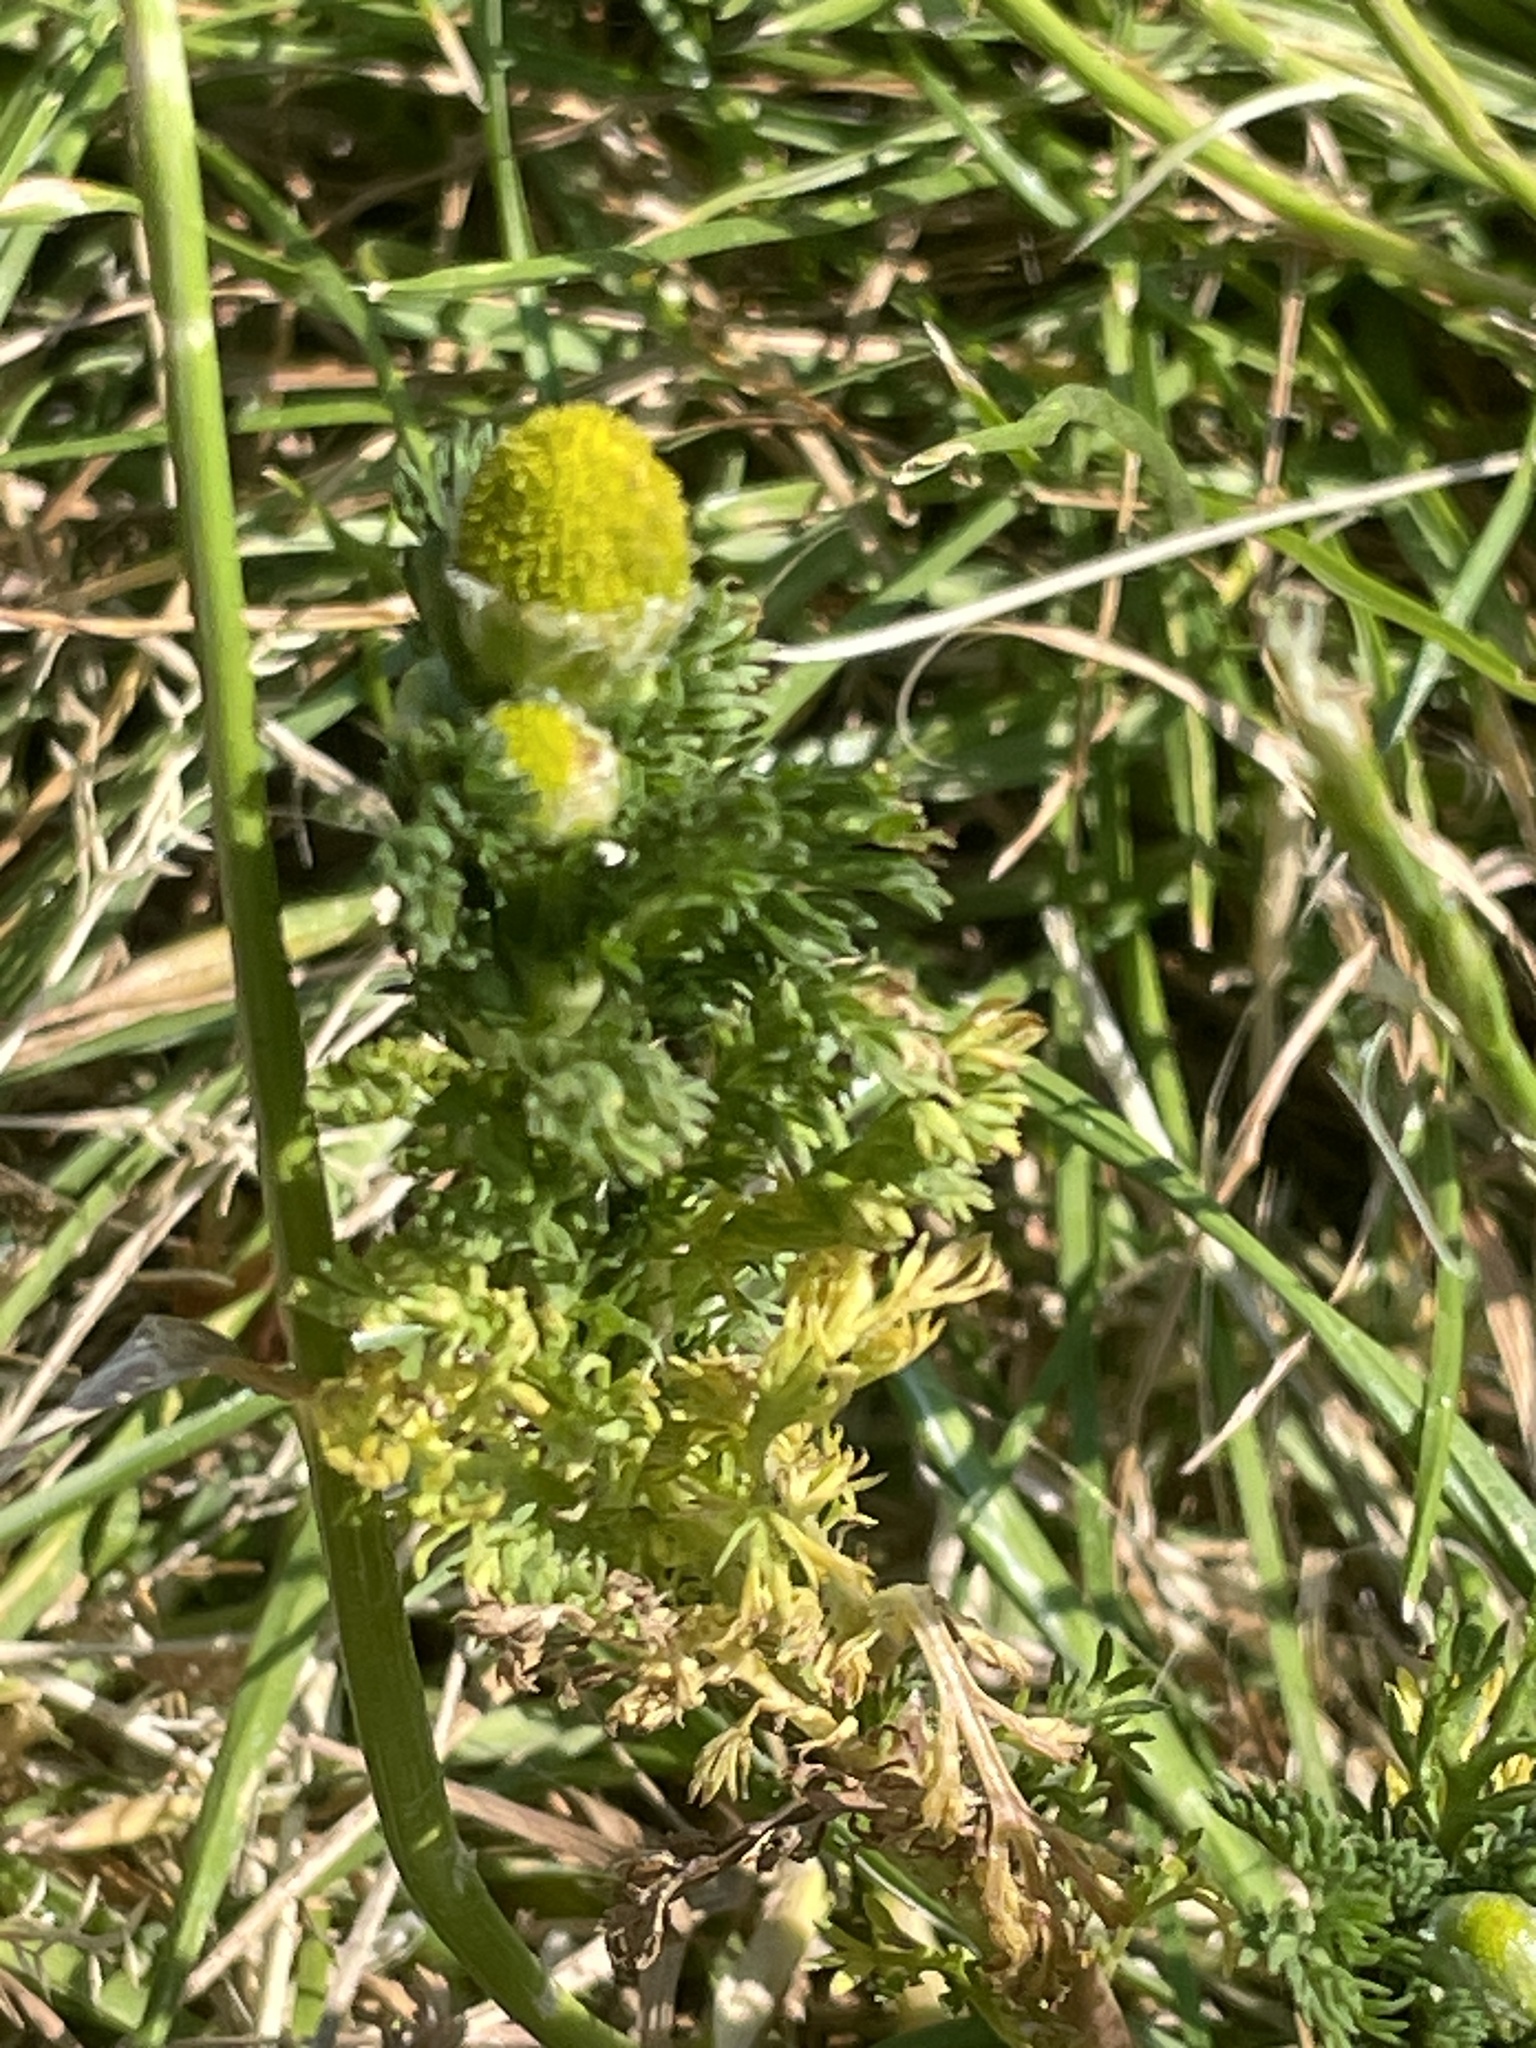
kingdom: Plantae
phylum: Tracheophyta
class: Magnoliopsida
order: Asterales
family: Asteraceae
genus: Matricaria
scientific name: Matricaria discoidea
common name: Disc mayweed
